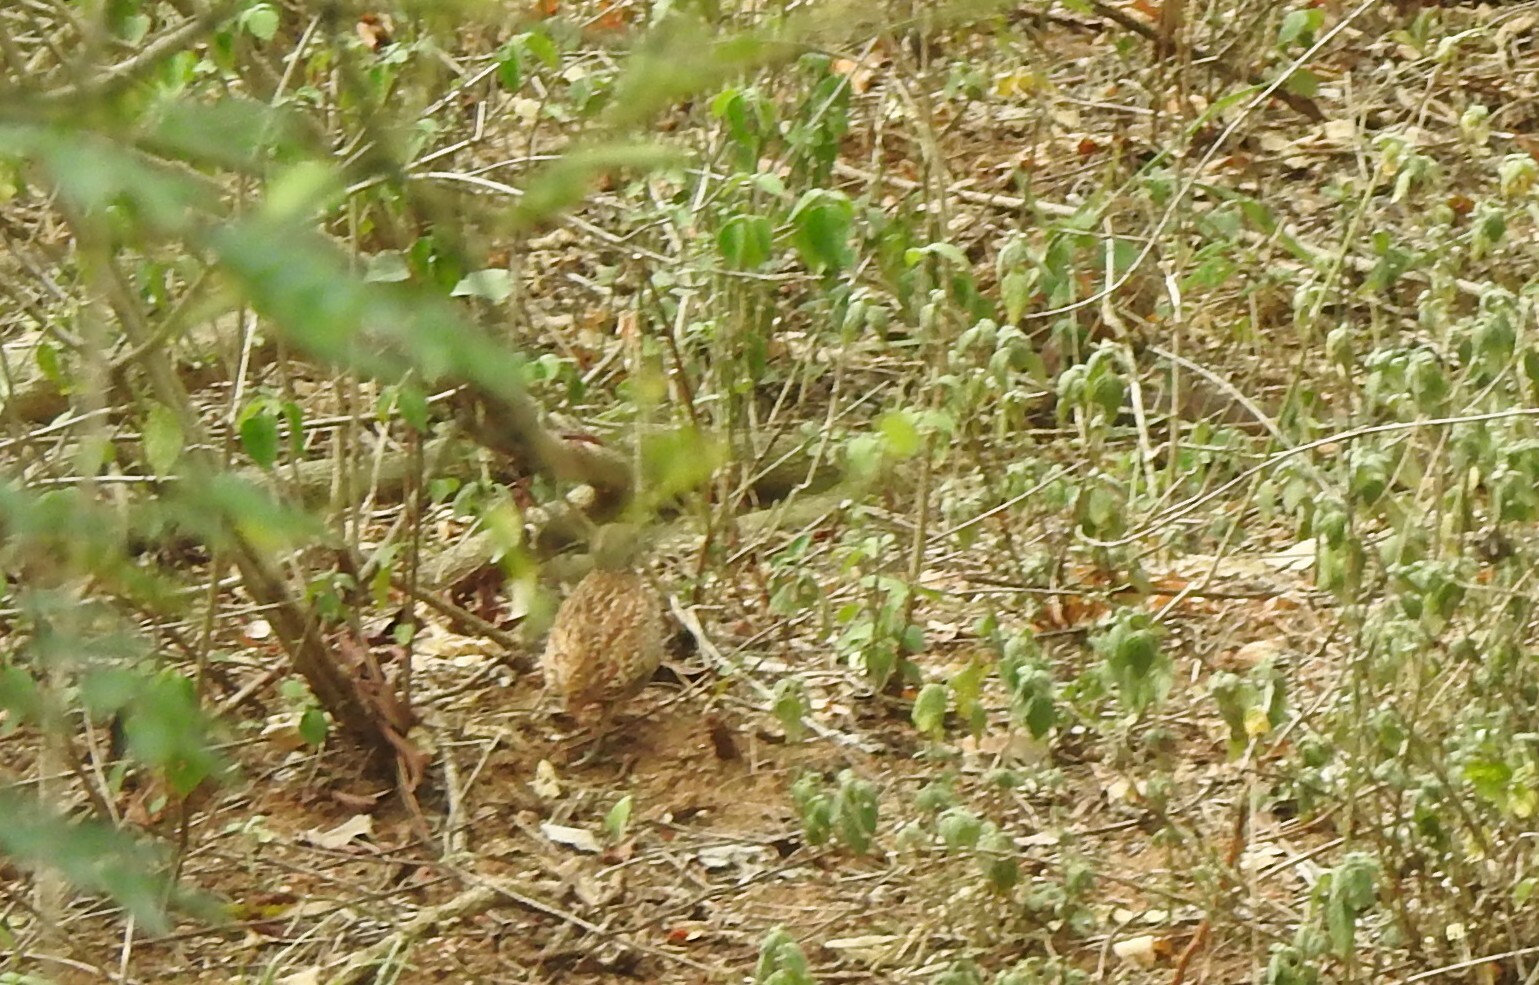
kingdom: Animalia
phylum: Chordata
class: Aves
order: Galliformes
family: Phasianidae
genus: Ortygornis
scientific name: Ortygornis pondicerianus
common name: Grey francolin
